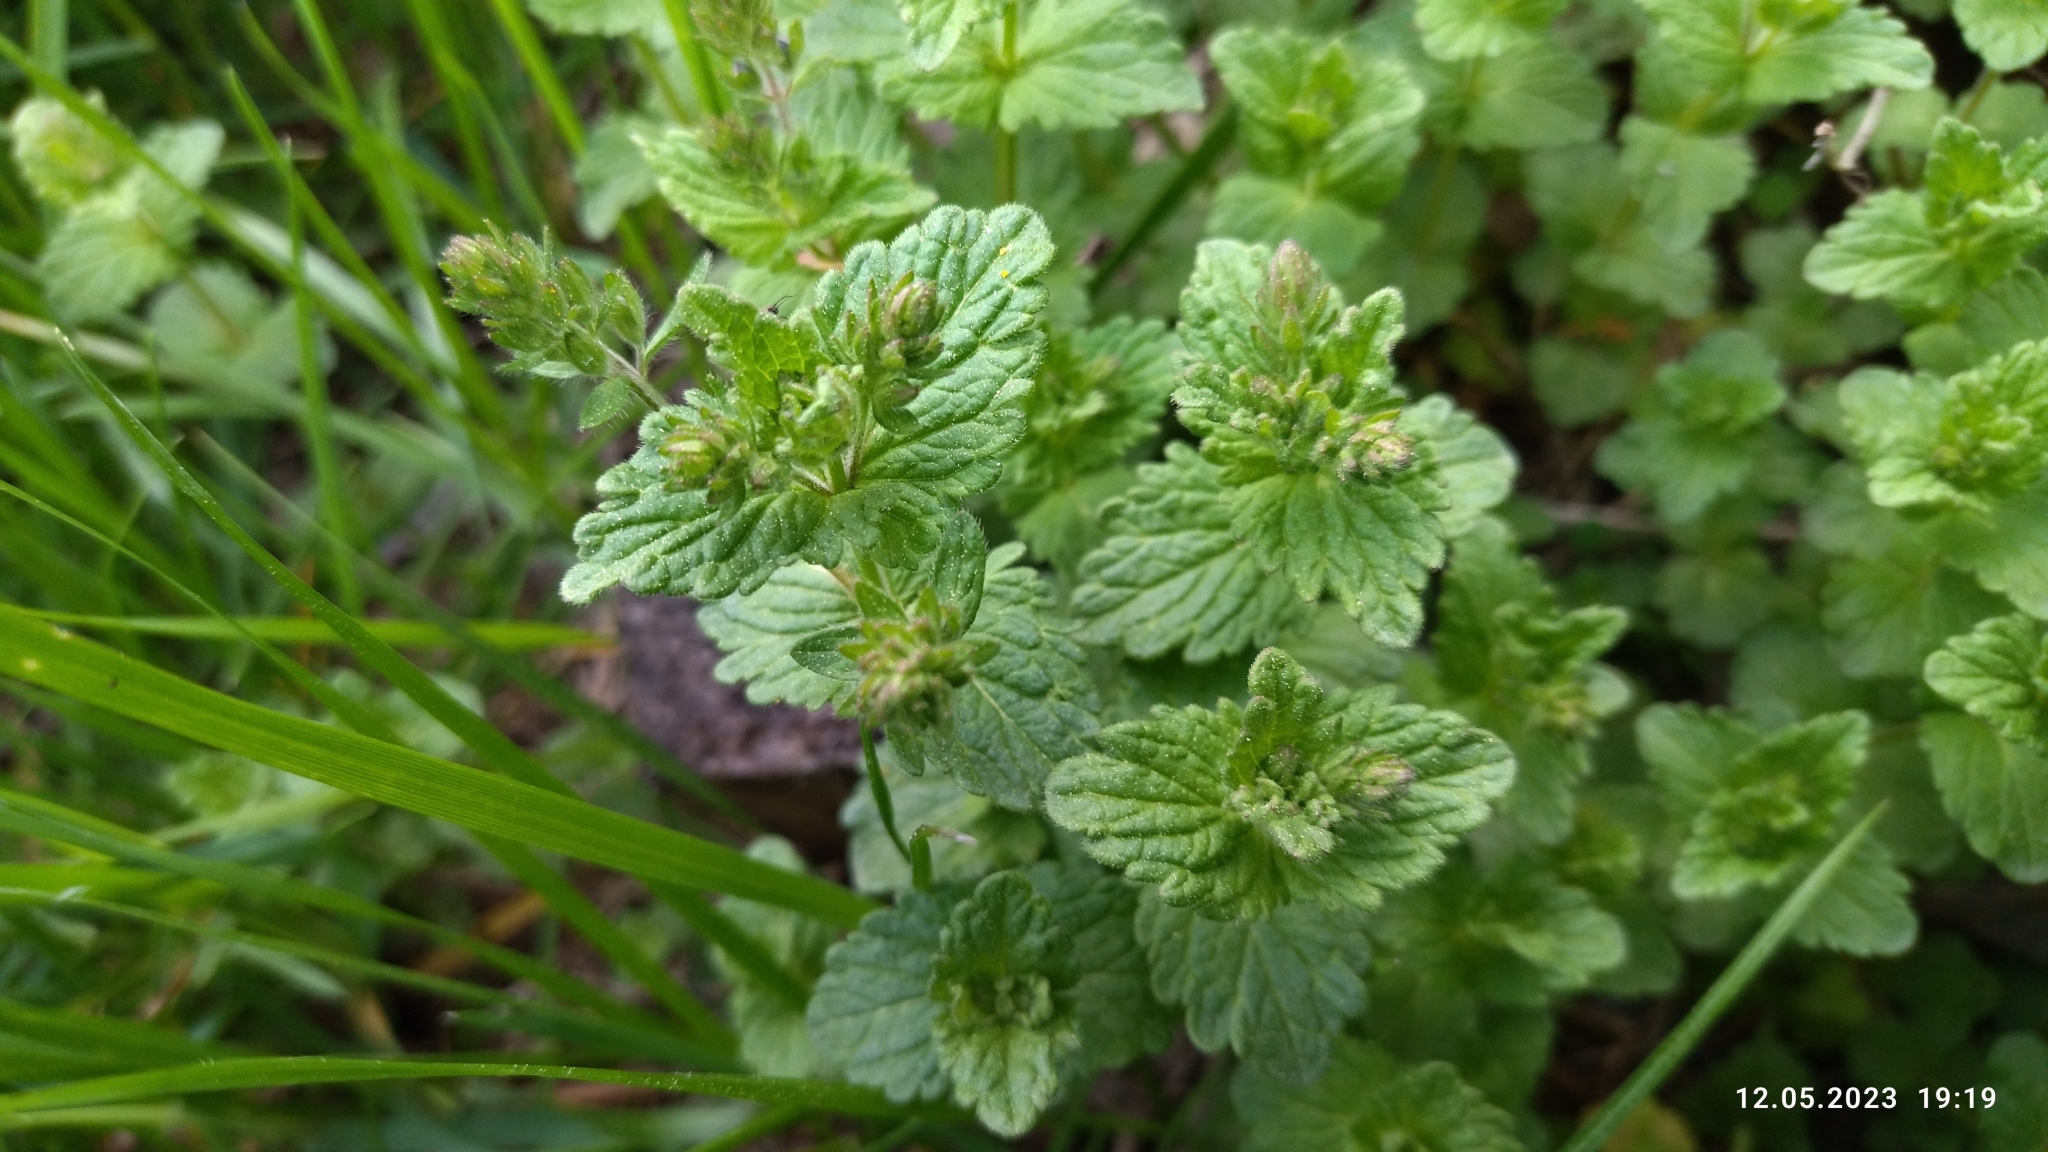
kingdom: Plantae
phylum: Tracheophyta
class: Magnoliopsida
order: Lamiales
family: Plantaginaceae
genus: Veronica
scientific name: Veronica chamaedrys
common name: Germander speedwell
